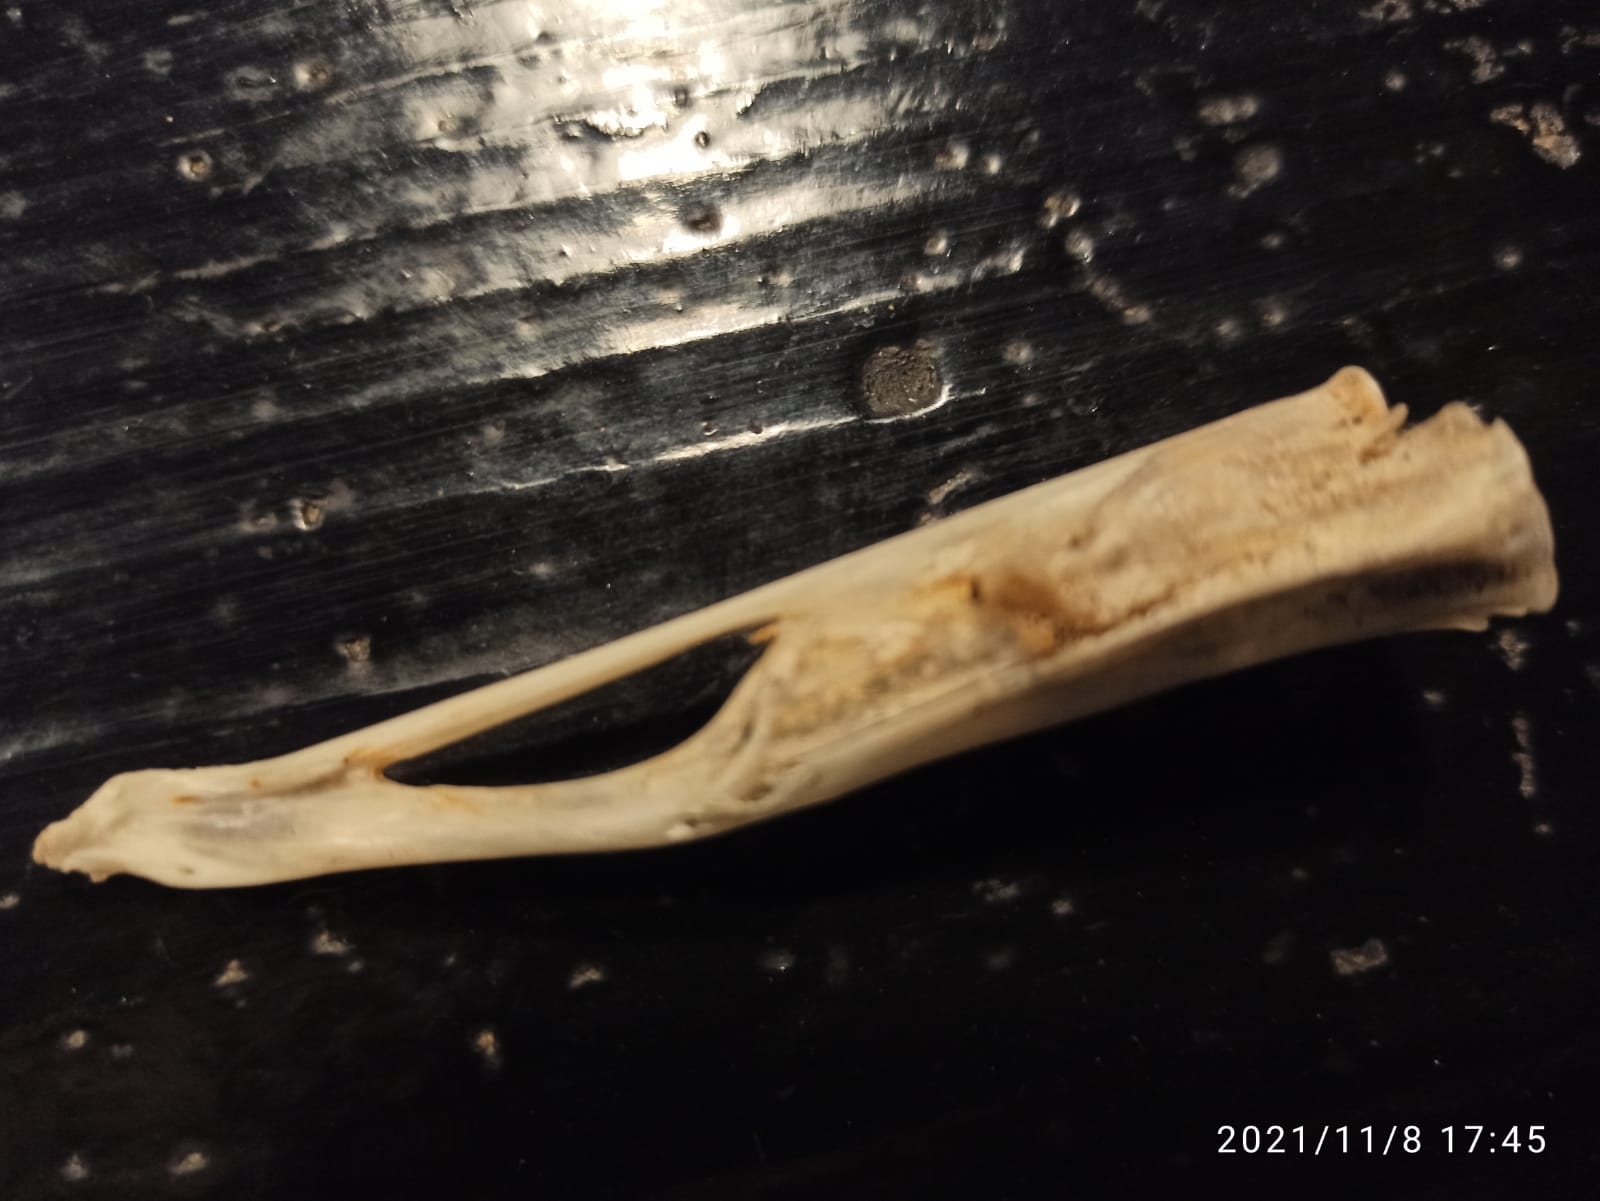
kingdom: Animalia
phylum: Chordata
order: Anguilliformes
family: Congridae
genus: Conger
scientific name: Conger conger
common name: Conger eel
